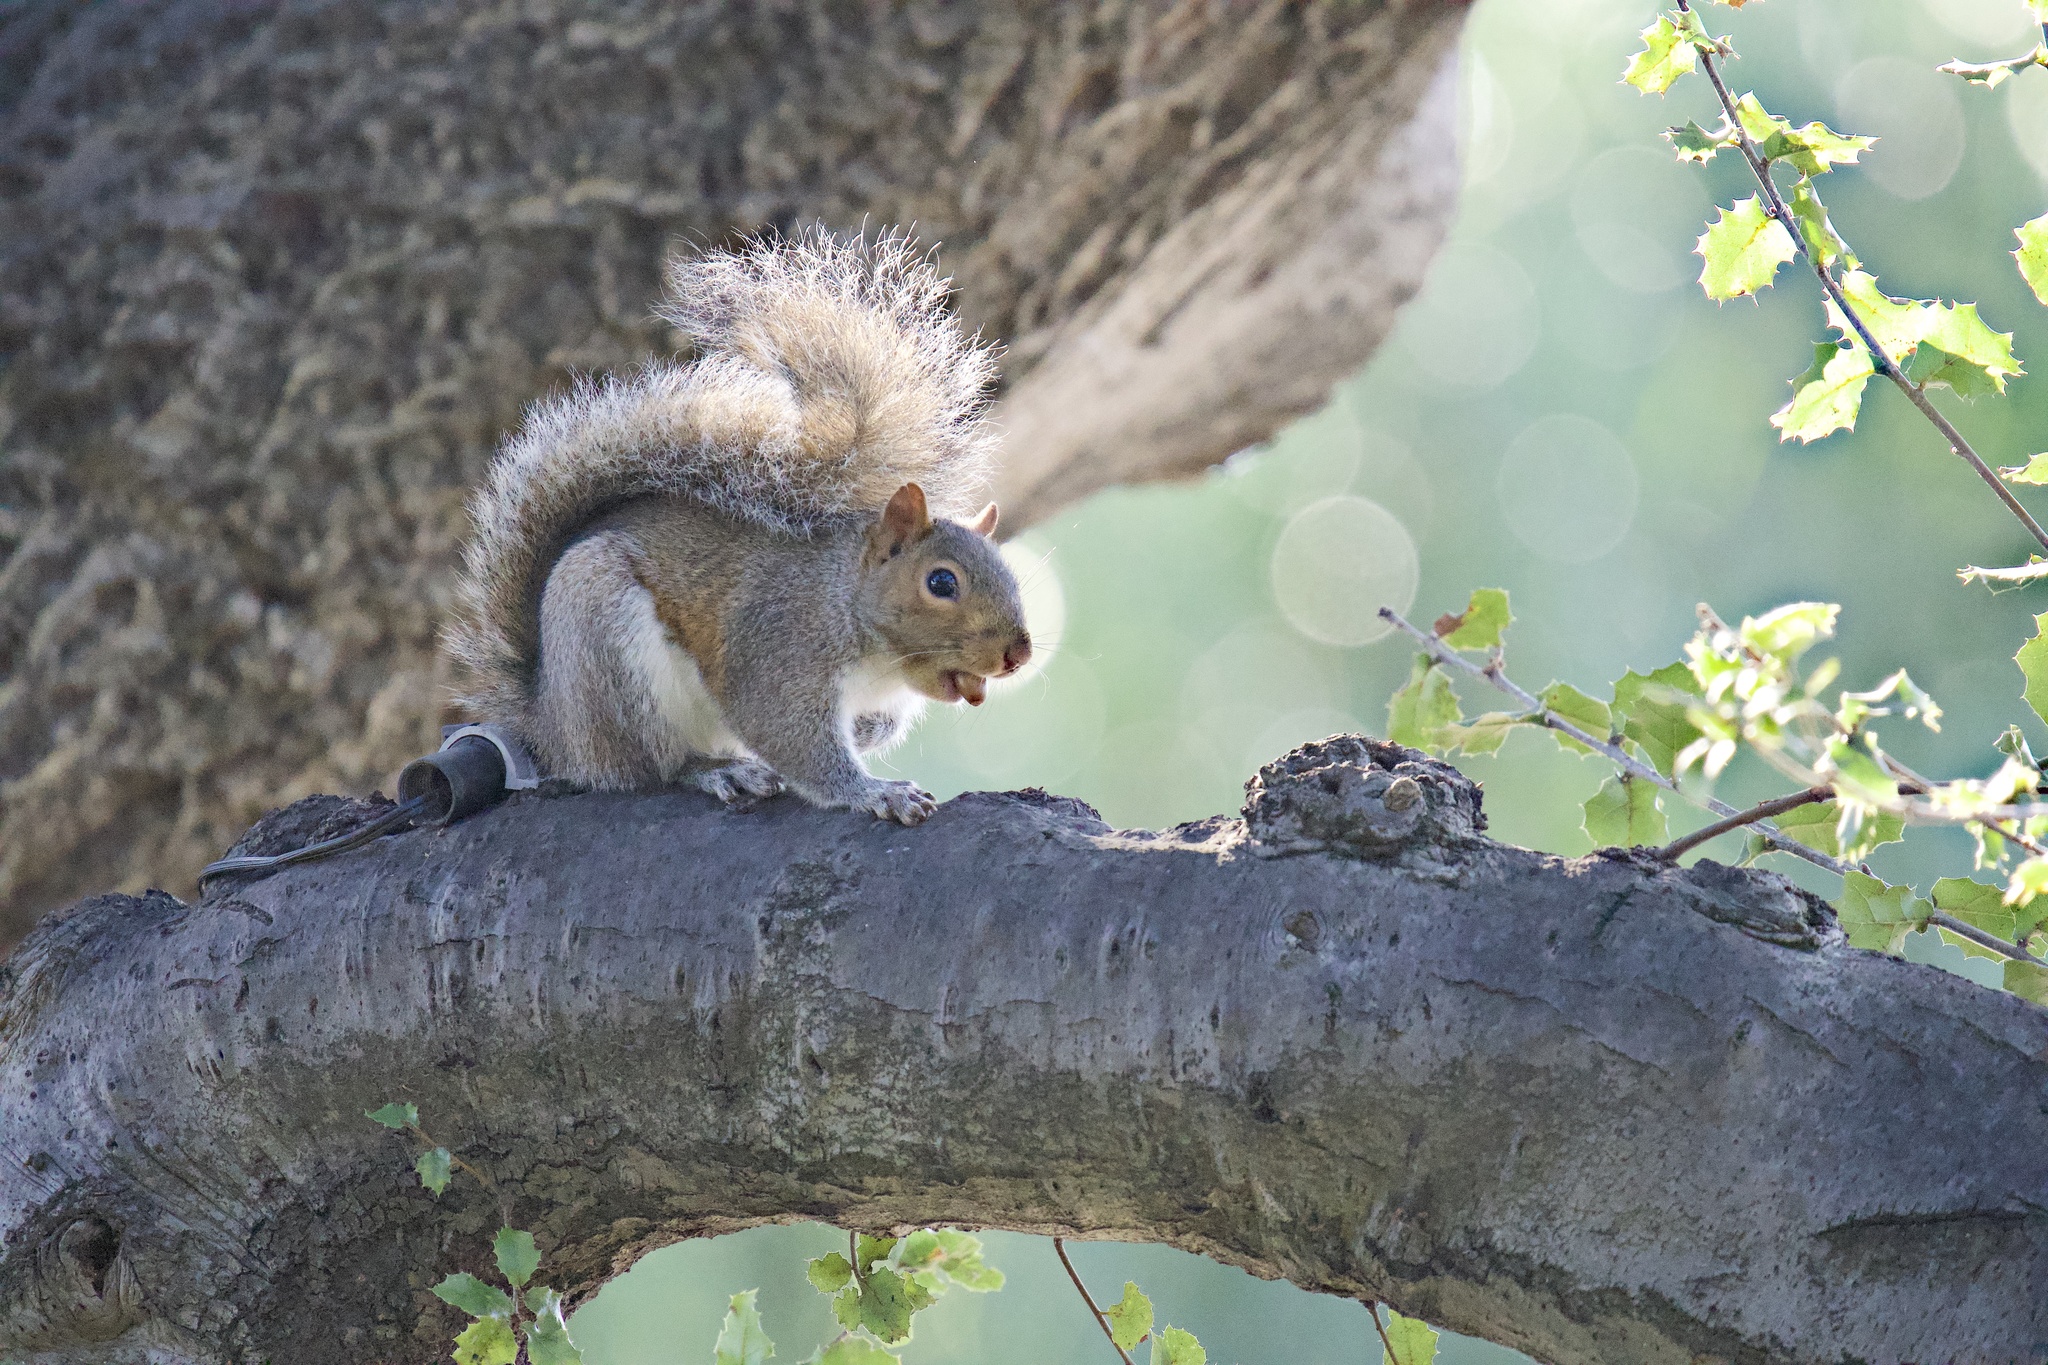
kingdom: Animalia
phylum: Chordata
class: Mammalia
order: Rodentia
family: Sciuridae
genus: Sciurus
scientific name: Sciurus carolinensis
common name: Eastern gray squirrel
